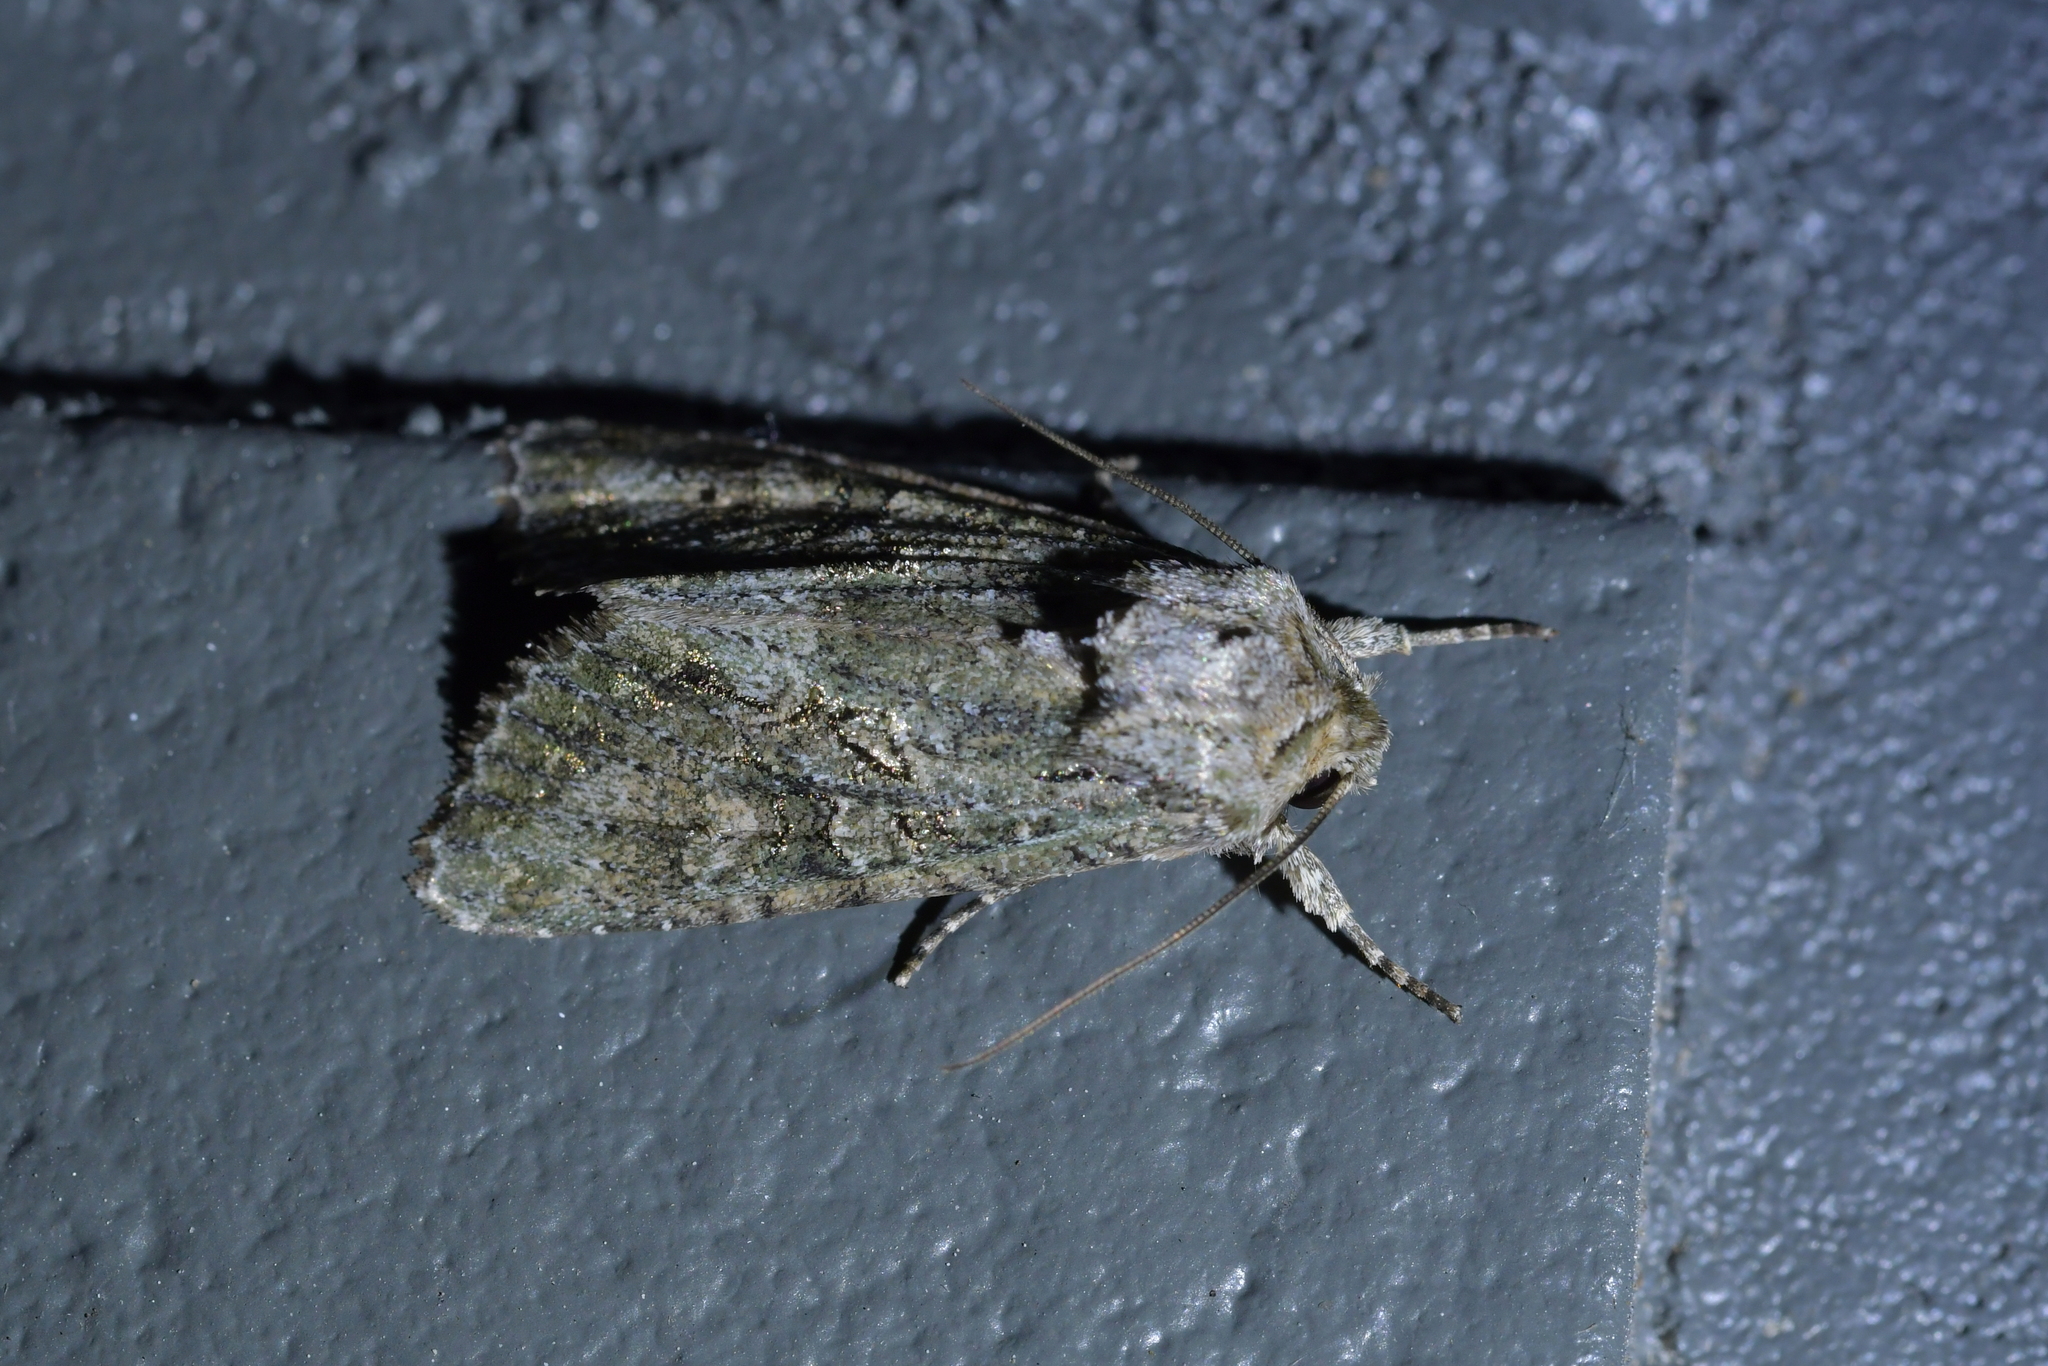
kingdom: Animalia
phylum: Arthropoda
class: Insecta
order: Lepidoptera
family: Noctuidae
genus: Ichneutica
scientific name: Ichneutica mutans
